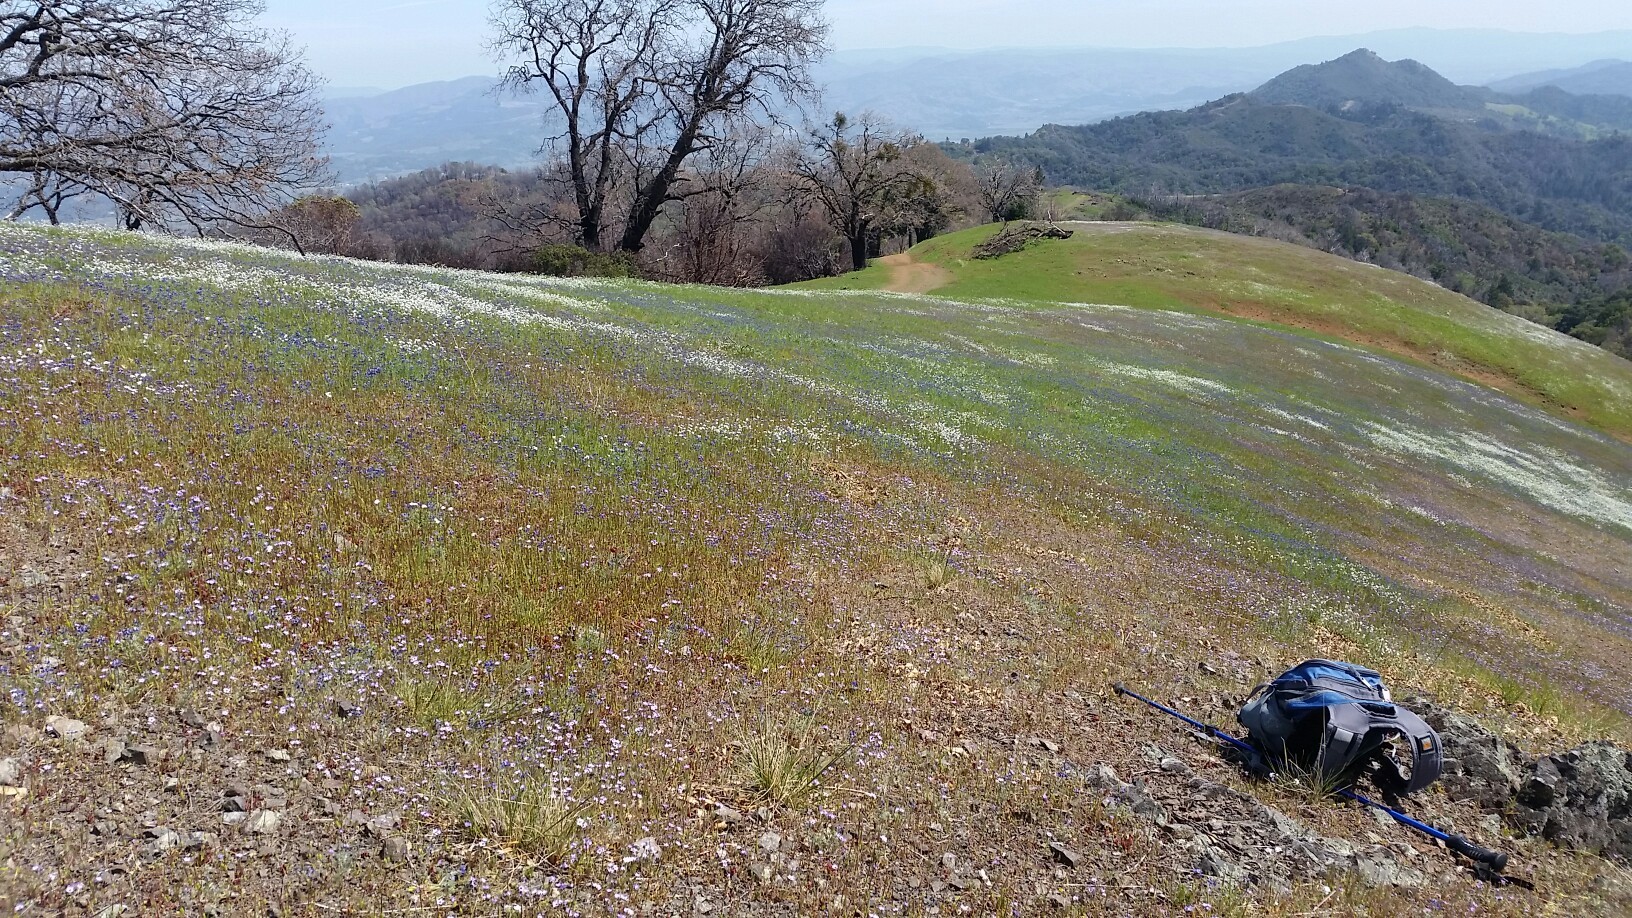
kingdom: Plantae
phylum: Tracheophyta
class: Magnoliopsida
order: Ericales
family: Polemoniaceae
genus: Gilia
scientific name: Gilia tricolor
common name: Bird's-eyes
